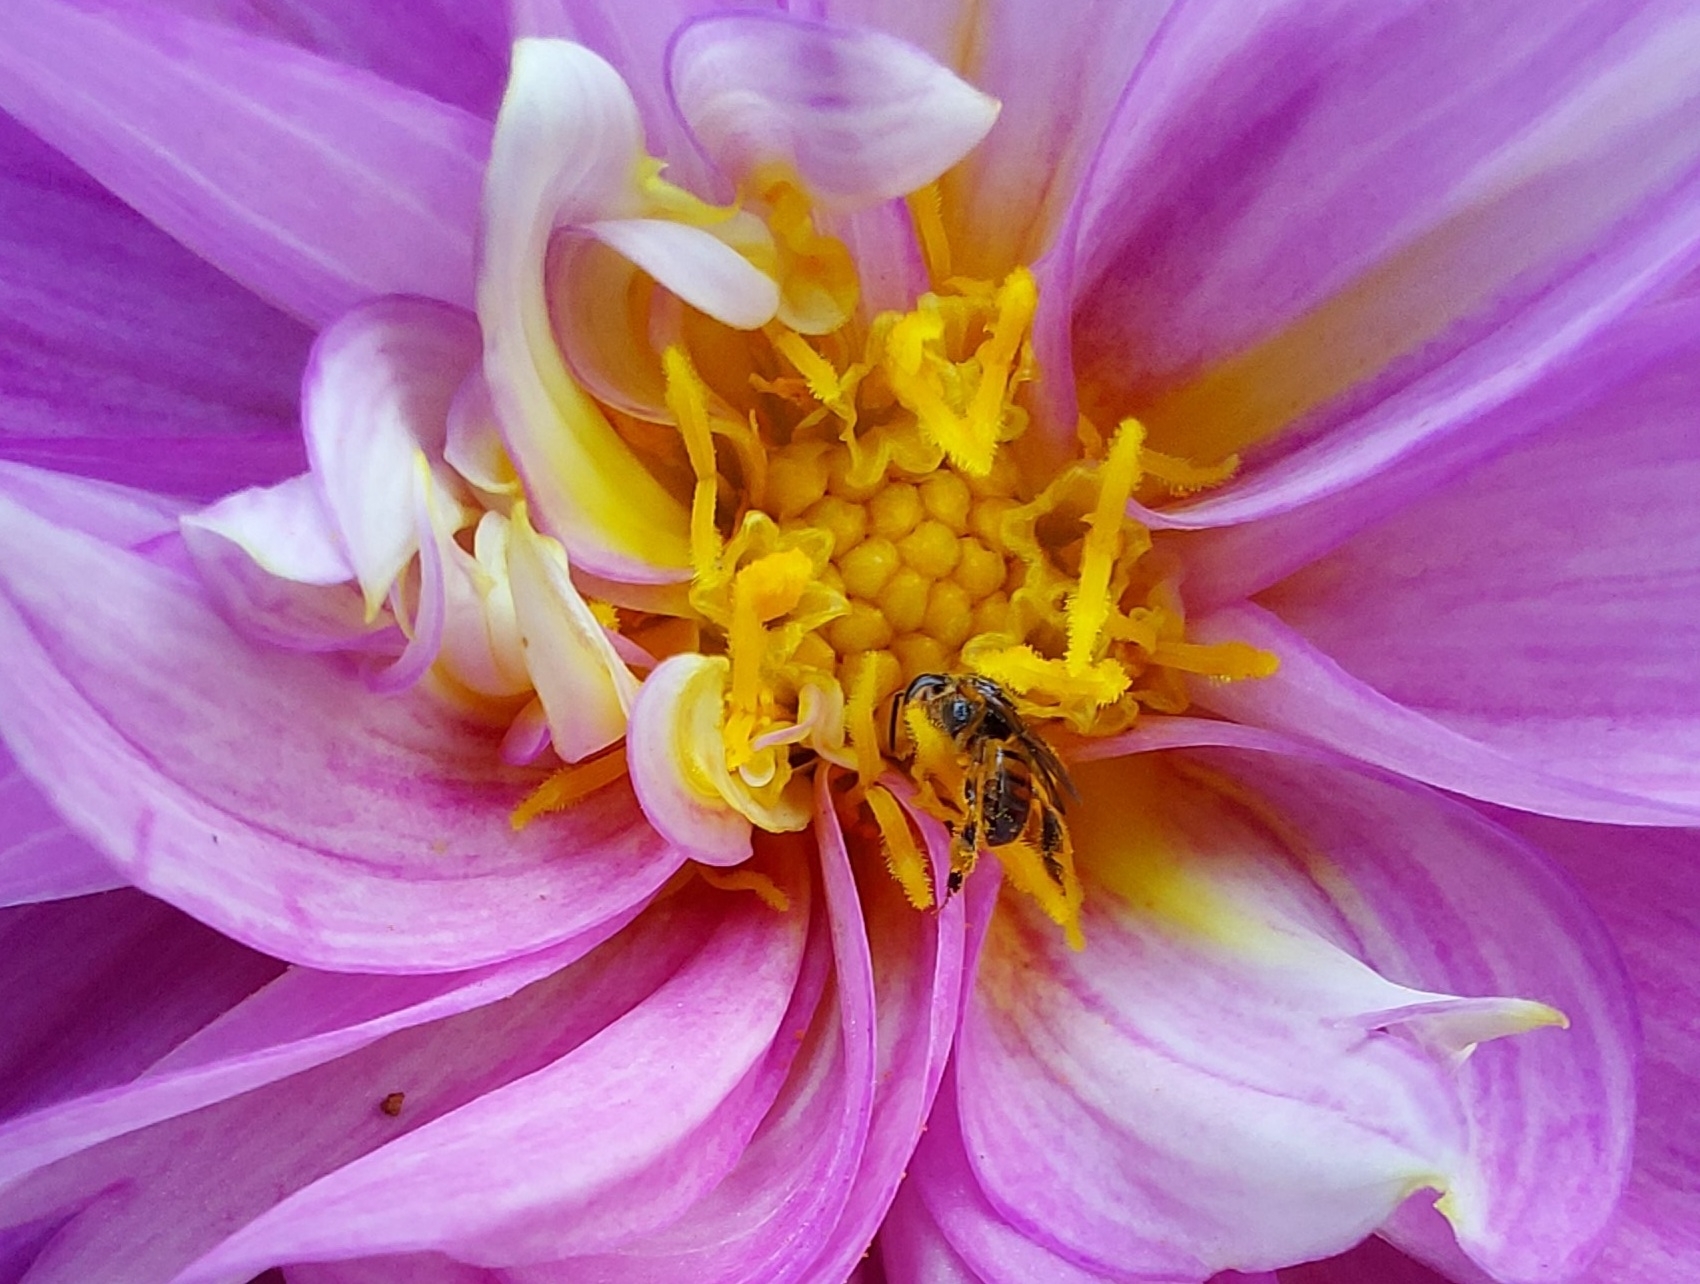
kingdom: Animalia
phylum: Arthropoda
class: Insecta
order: Hymenoptera
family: Apidae
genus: Plebeia
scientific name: Plebeia droryana
